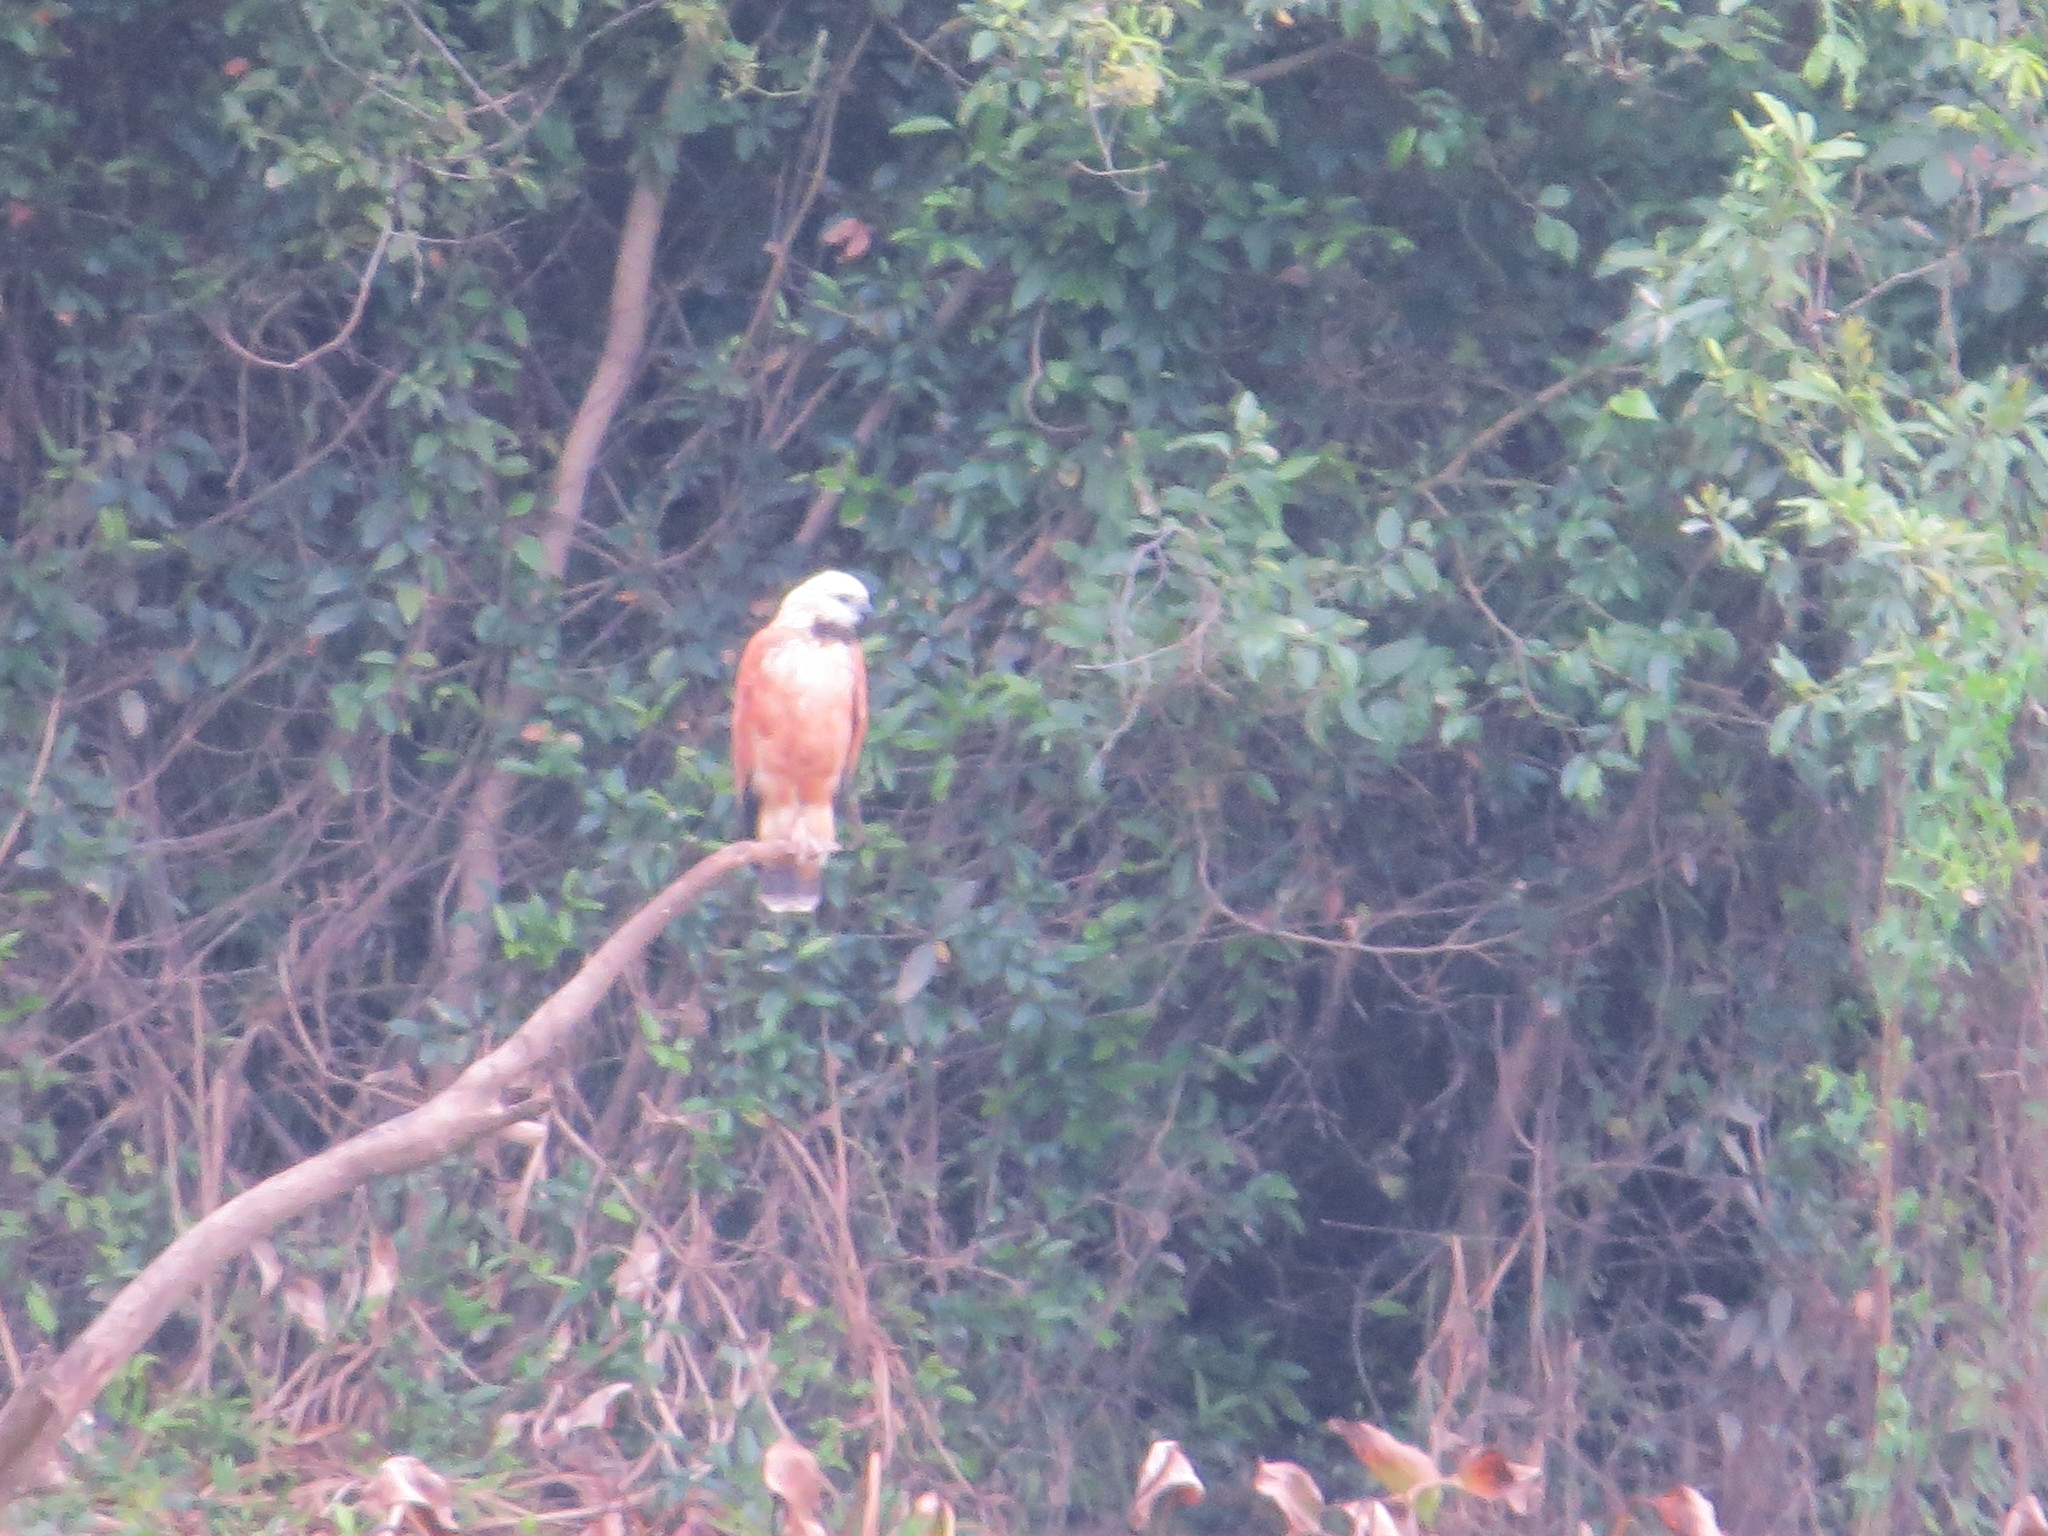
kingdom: Animalia
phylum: Chordata
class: Aves
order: Accipitriformes
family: Accipitridae
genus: Busarellus
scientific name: Busarellus nigricollis
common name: Black-collared hawk
